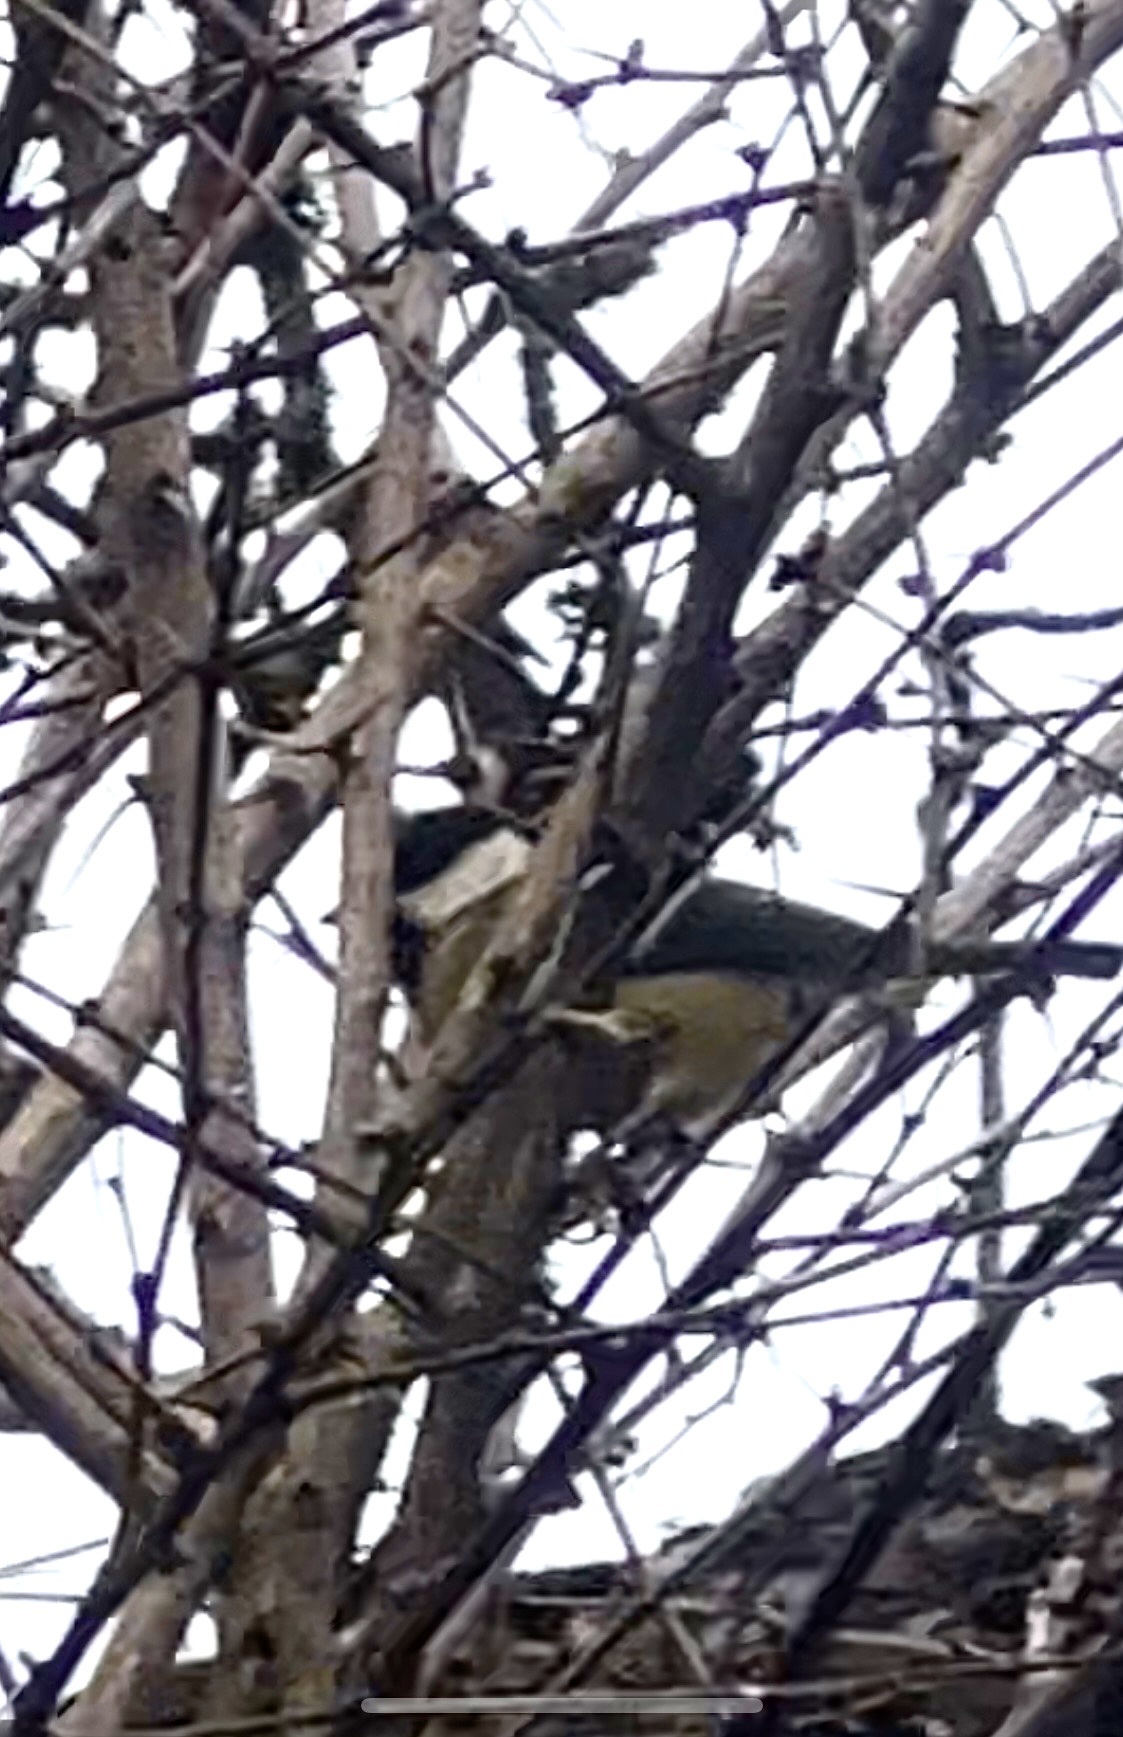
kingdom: Animalia
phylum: Chordata
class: Aves
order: Passeriformes
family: Paridae
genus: Parus
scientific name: Parus major
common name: Great tit
